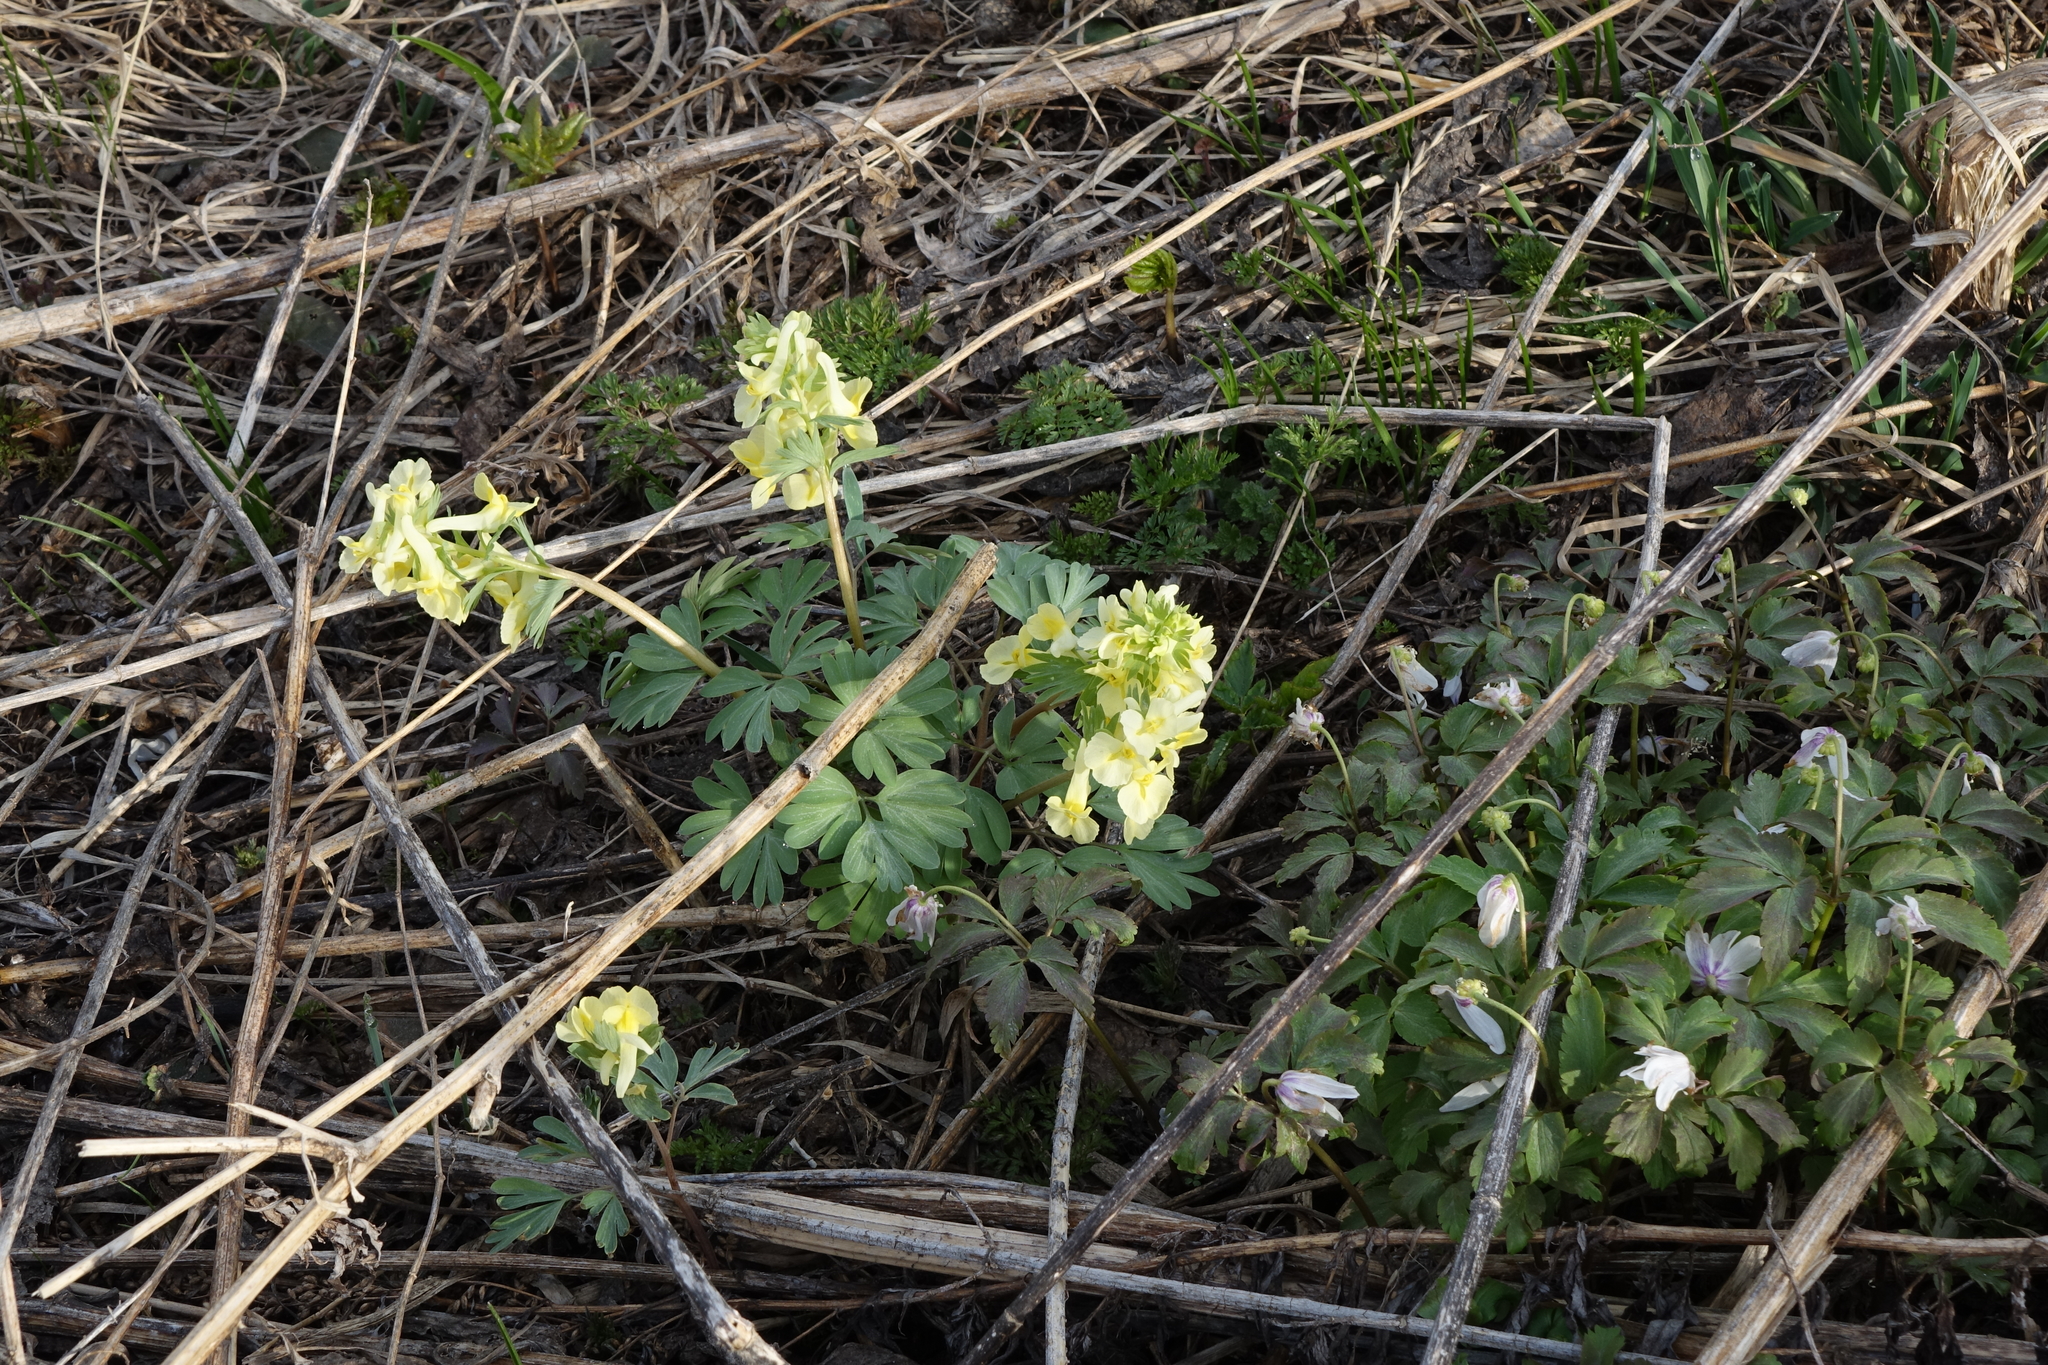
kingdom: Plantae
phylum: Tracheophyta
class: Magnoliopsida
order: Ranunculales
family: Papaveraceae
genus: Corydalis
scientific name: Corydalis bracteata
